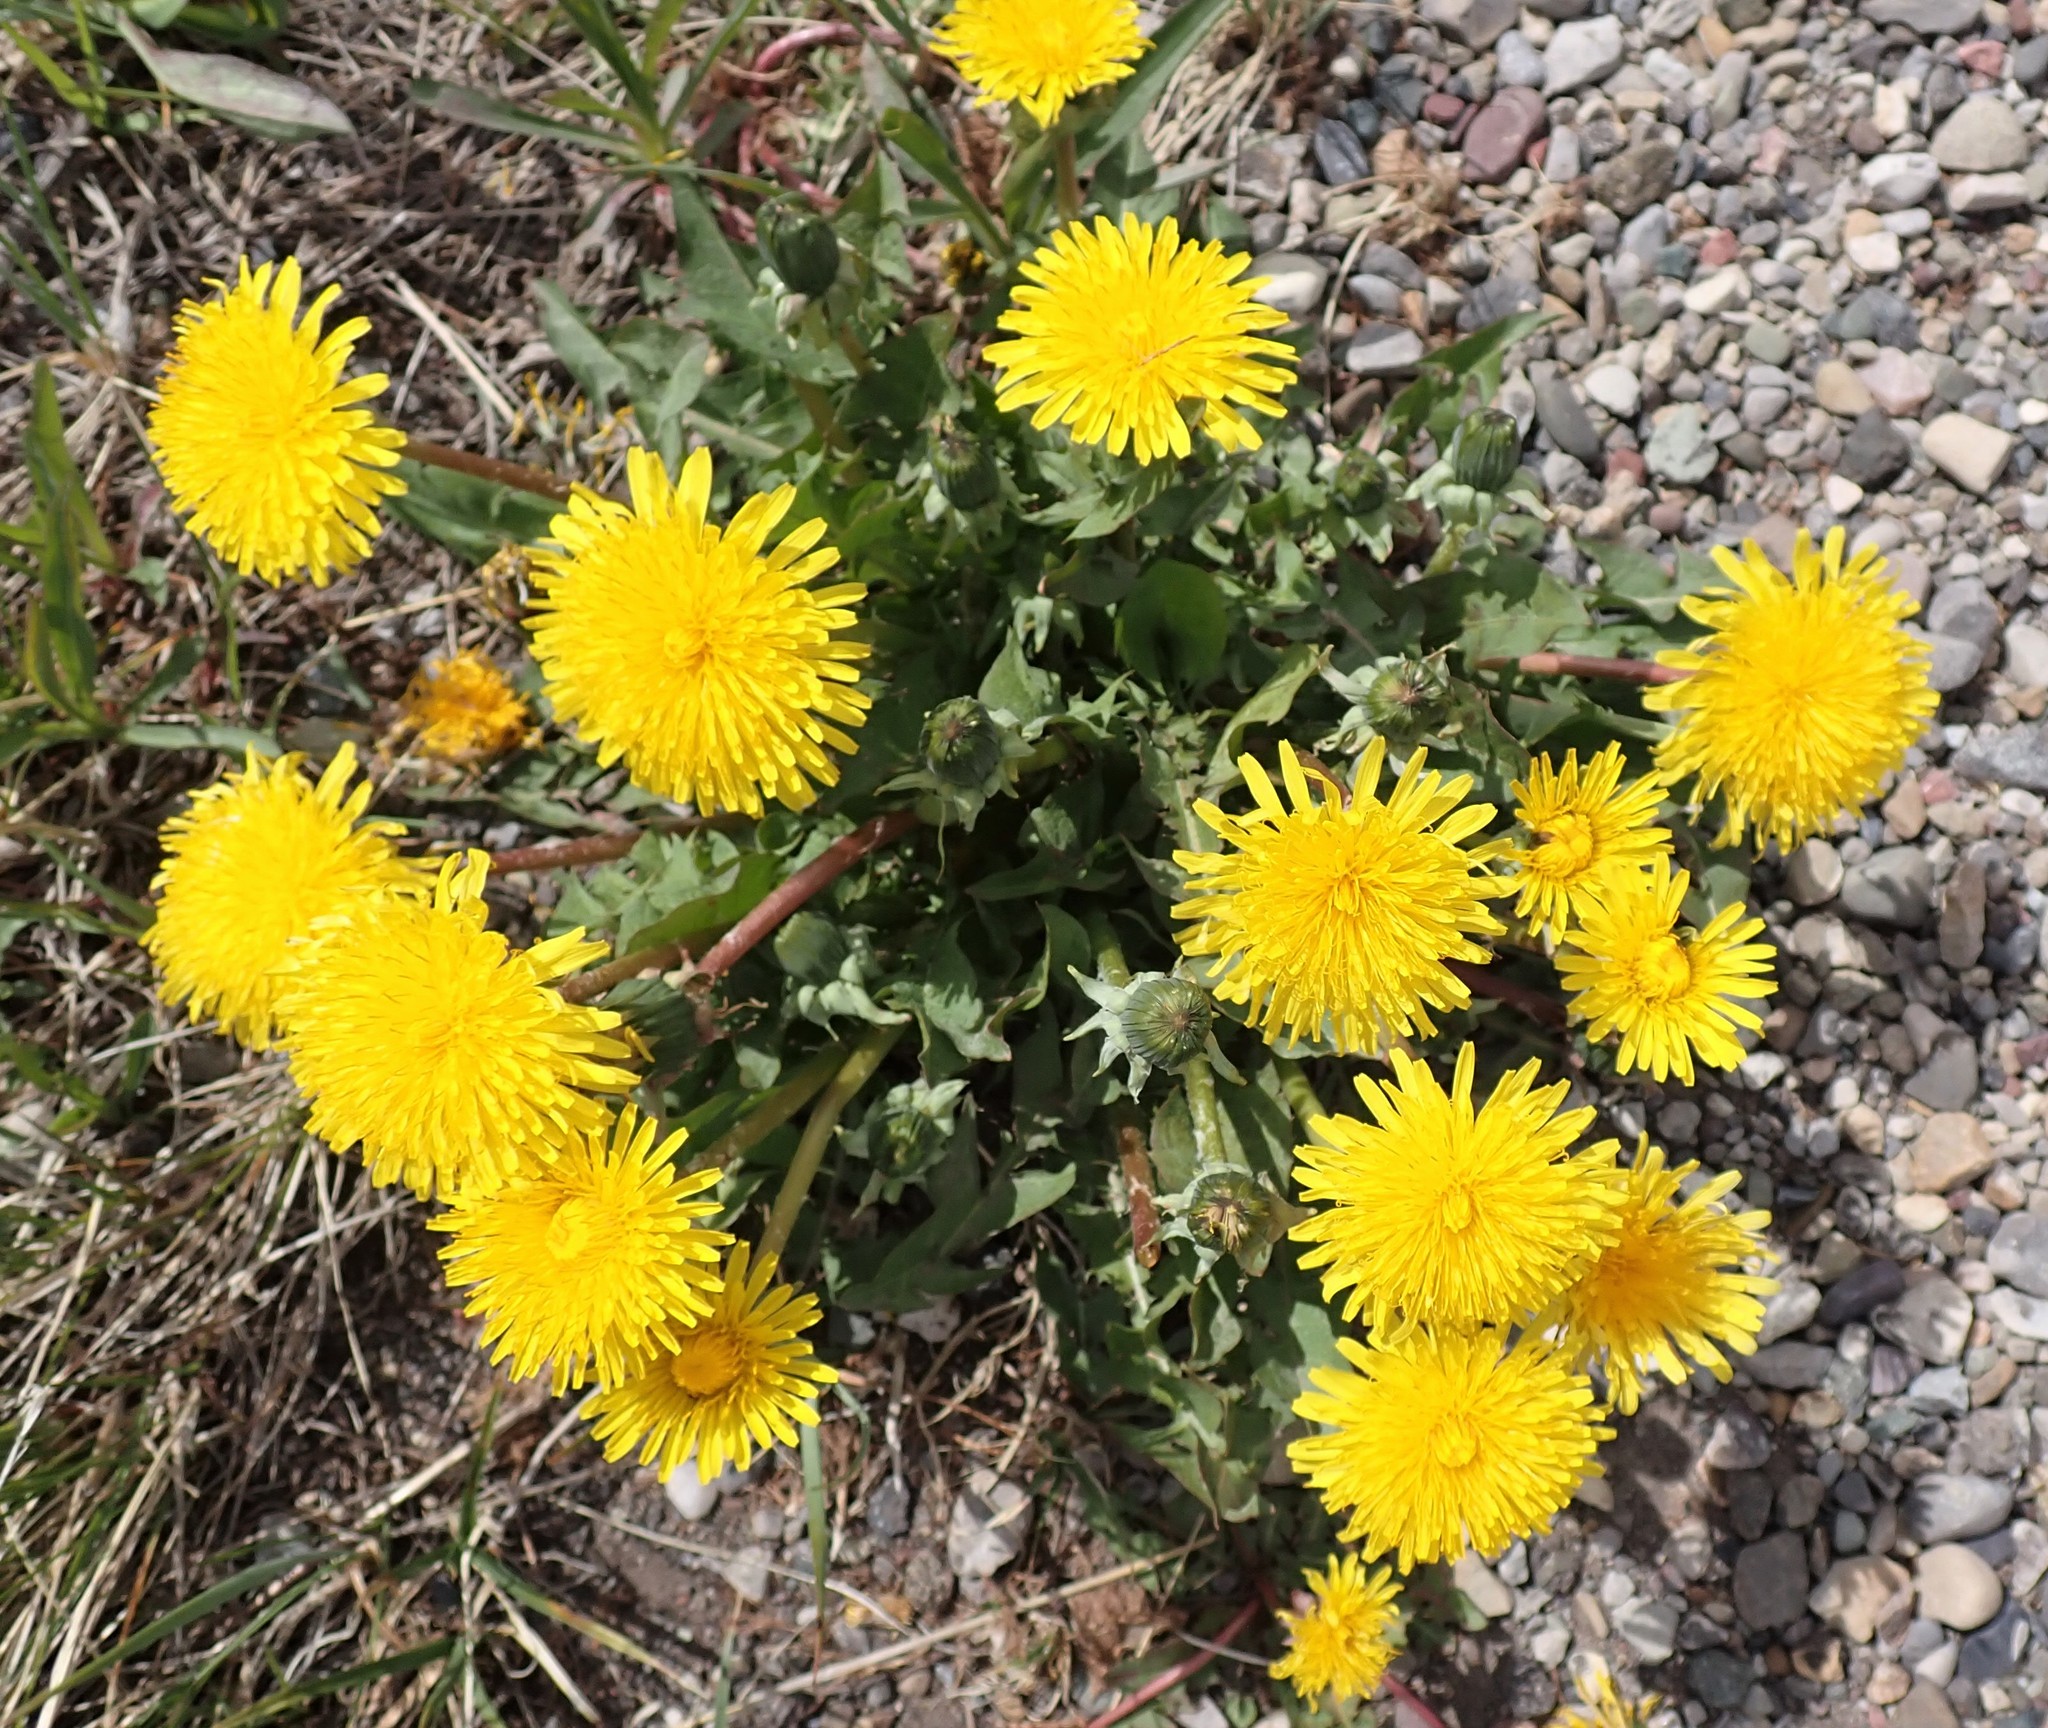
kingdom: Plantae
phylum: Tracheophyta
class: Magnoliopsida
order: Asterales
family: Asteraceae
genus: Taraxacum
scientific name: Taraxacum officinale
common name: Common dandelion
